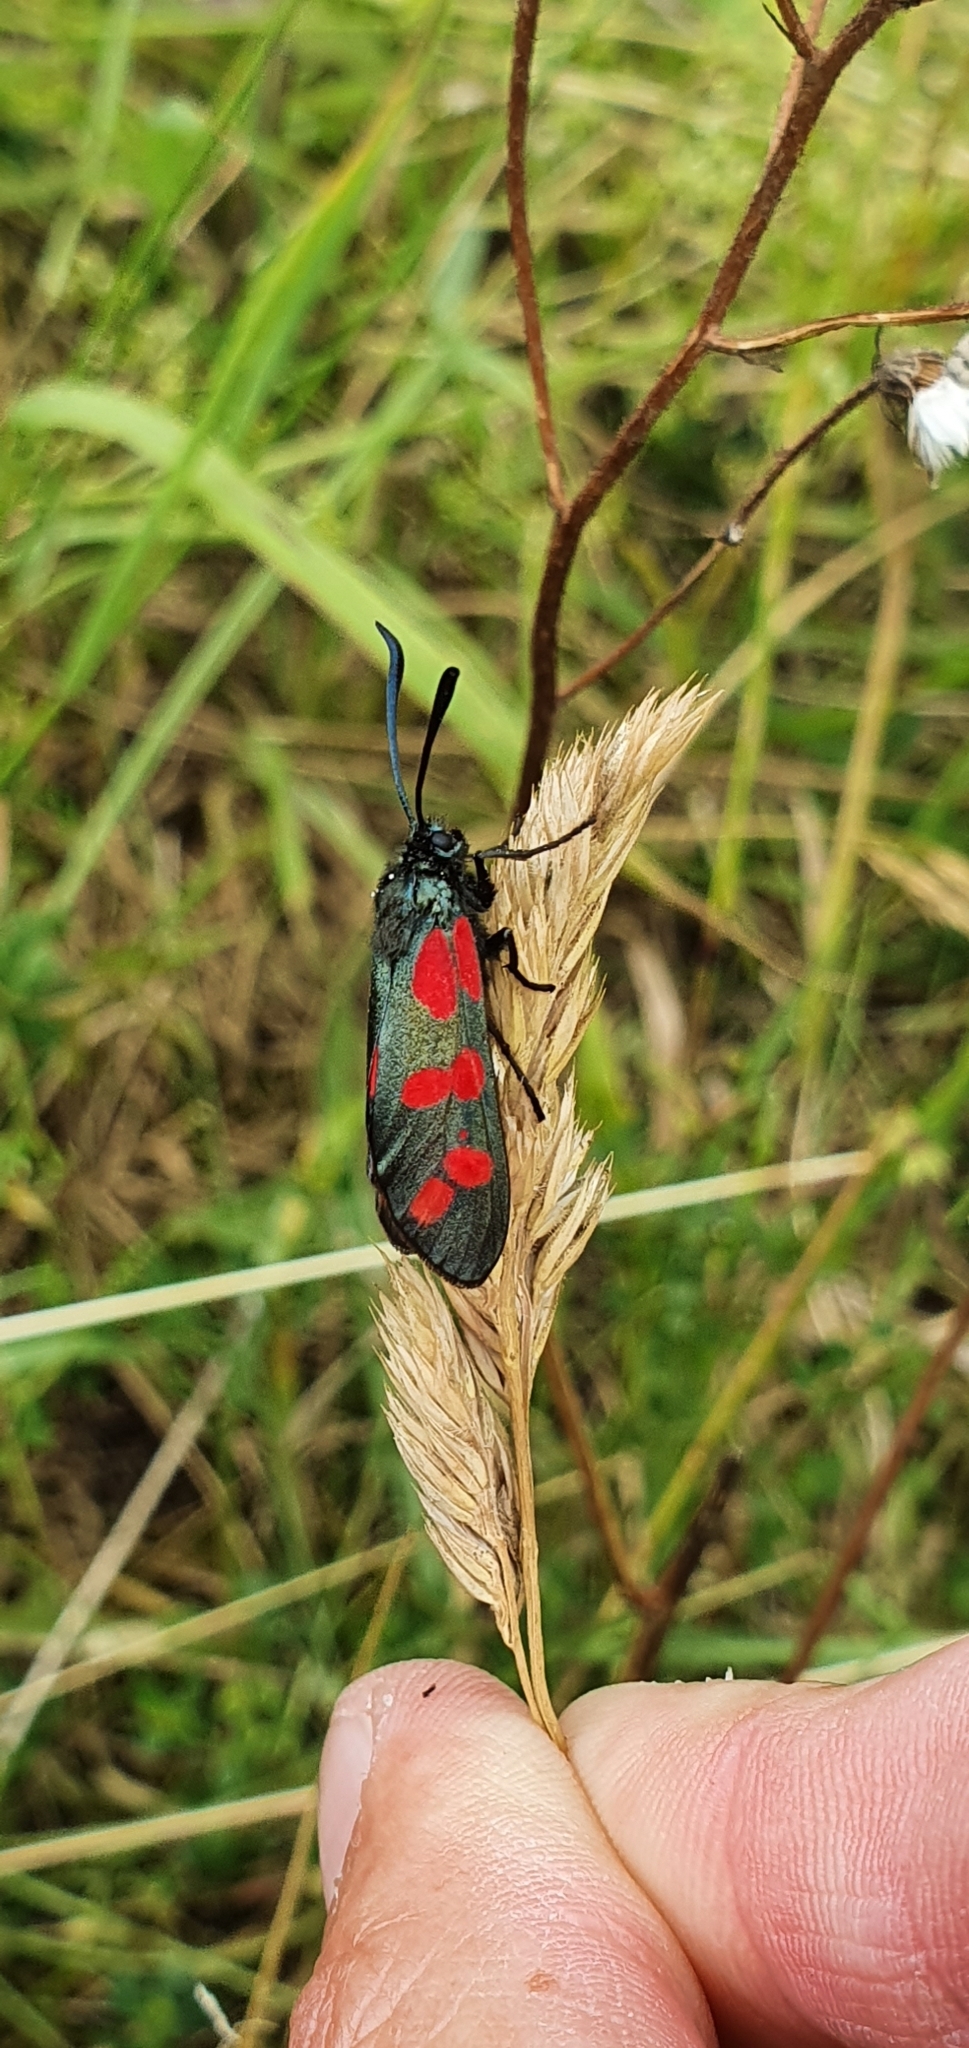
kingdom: Animalia
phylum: Arthropoda
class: Insecta
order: Lepidoptera
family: Zygaenidae
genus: Zygaena
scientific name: Zygaena filipendulae
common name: Six-spot burnet
